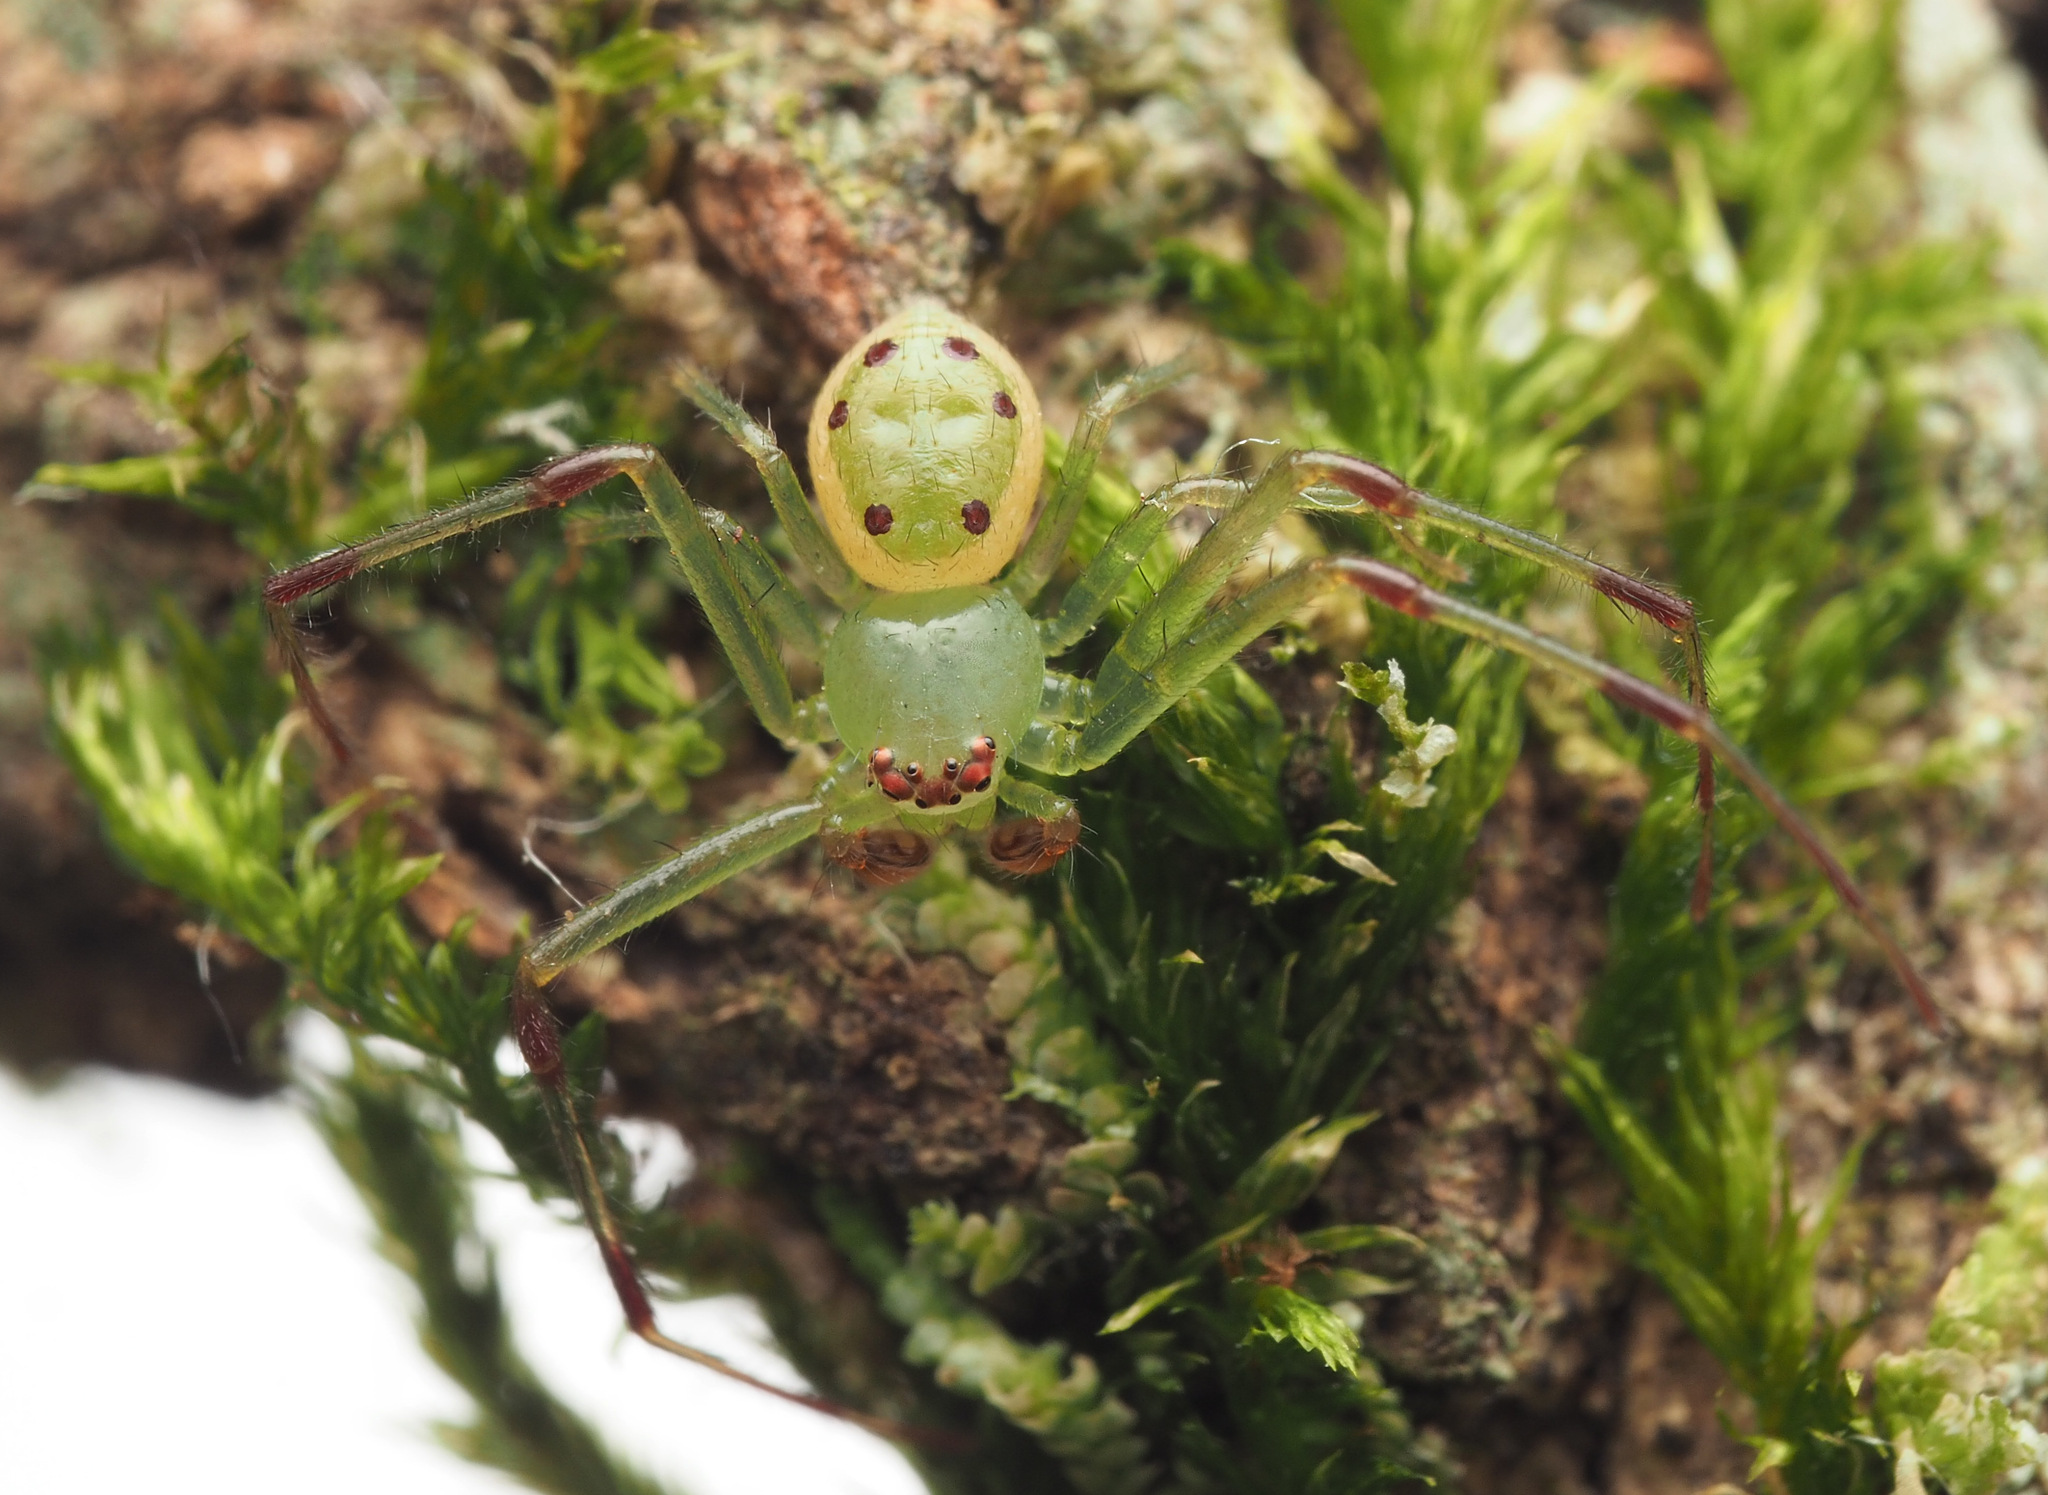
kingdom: Animalia
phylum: Arthropoda
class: Arachnida
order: Araneae
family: Thomisidae
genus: Australomisidia
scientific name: Australomisidia
